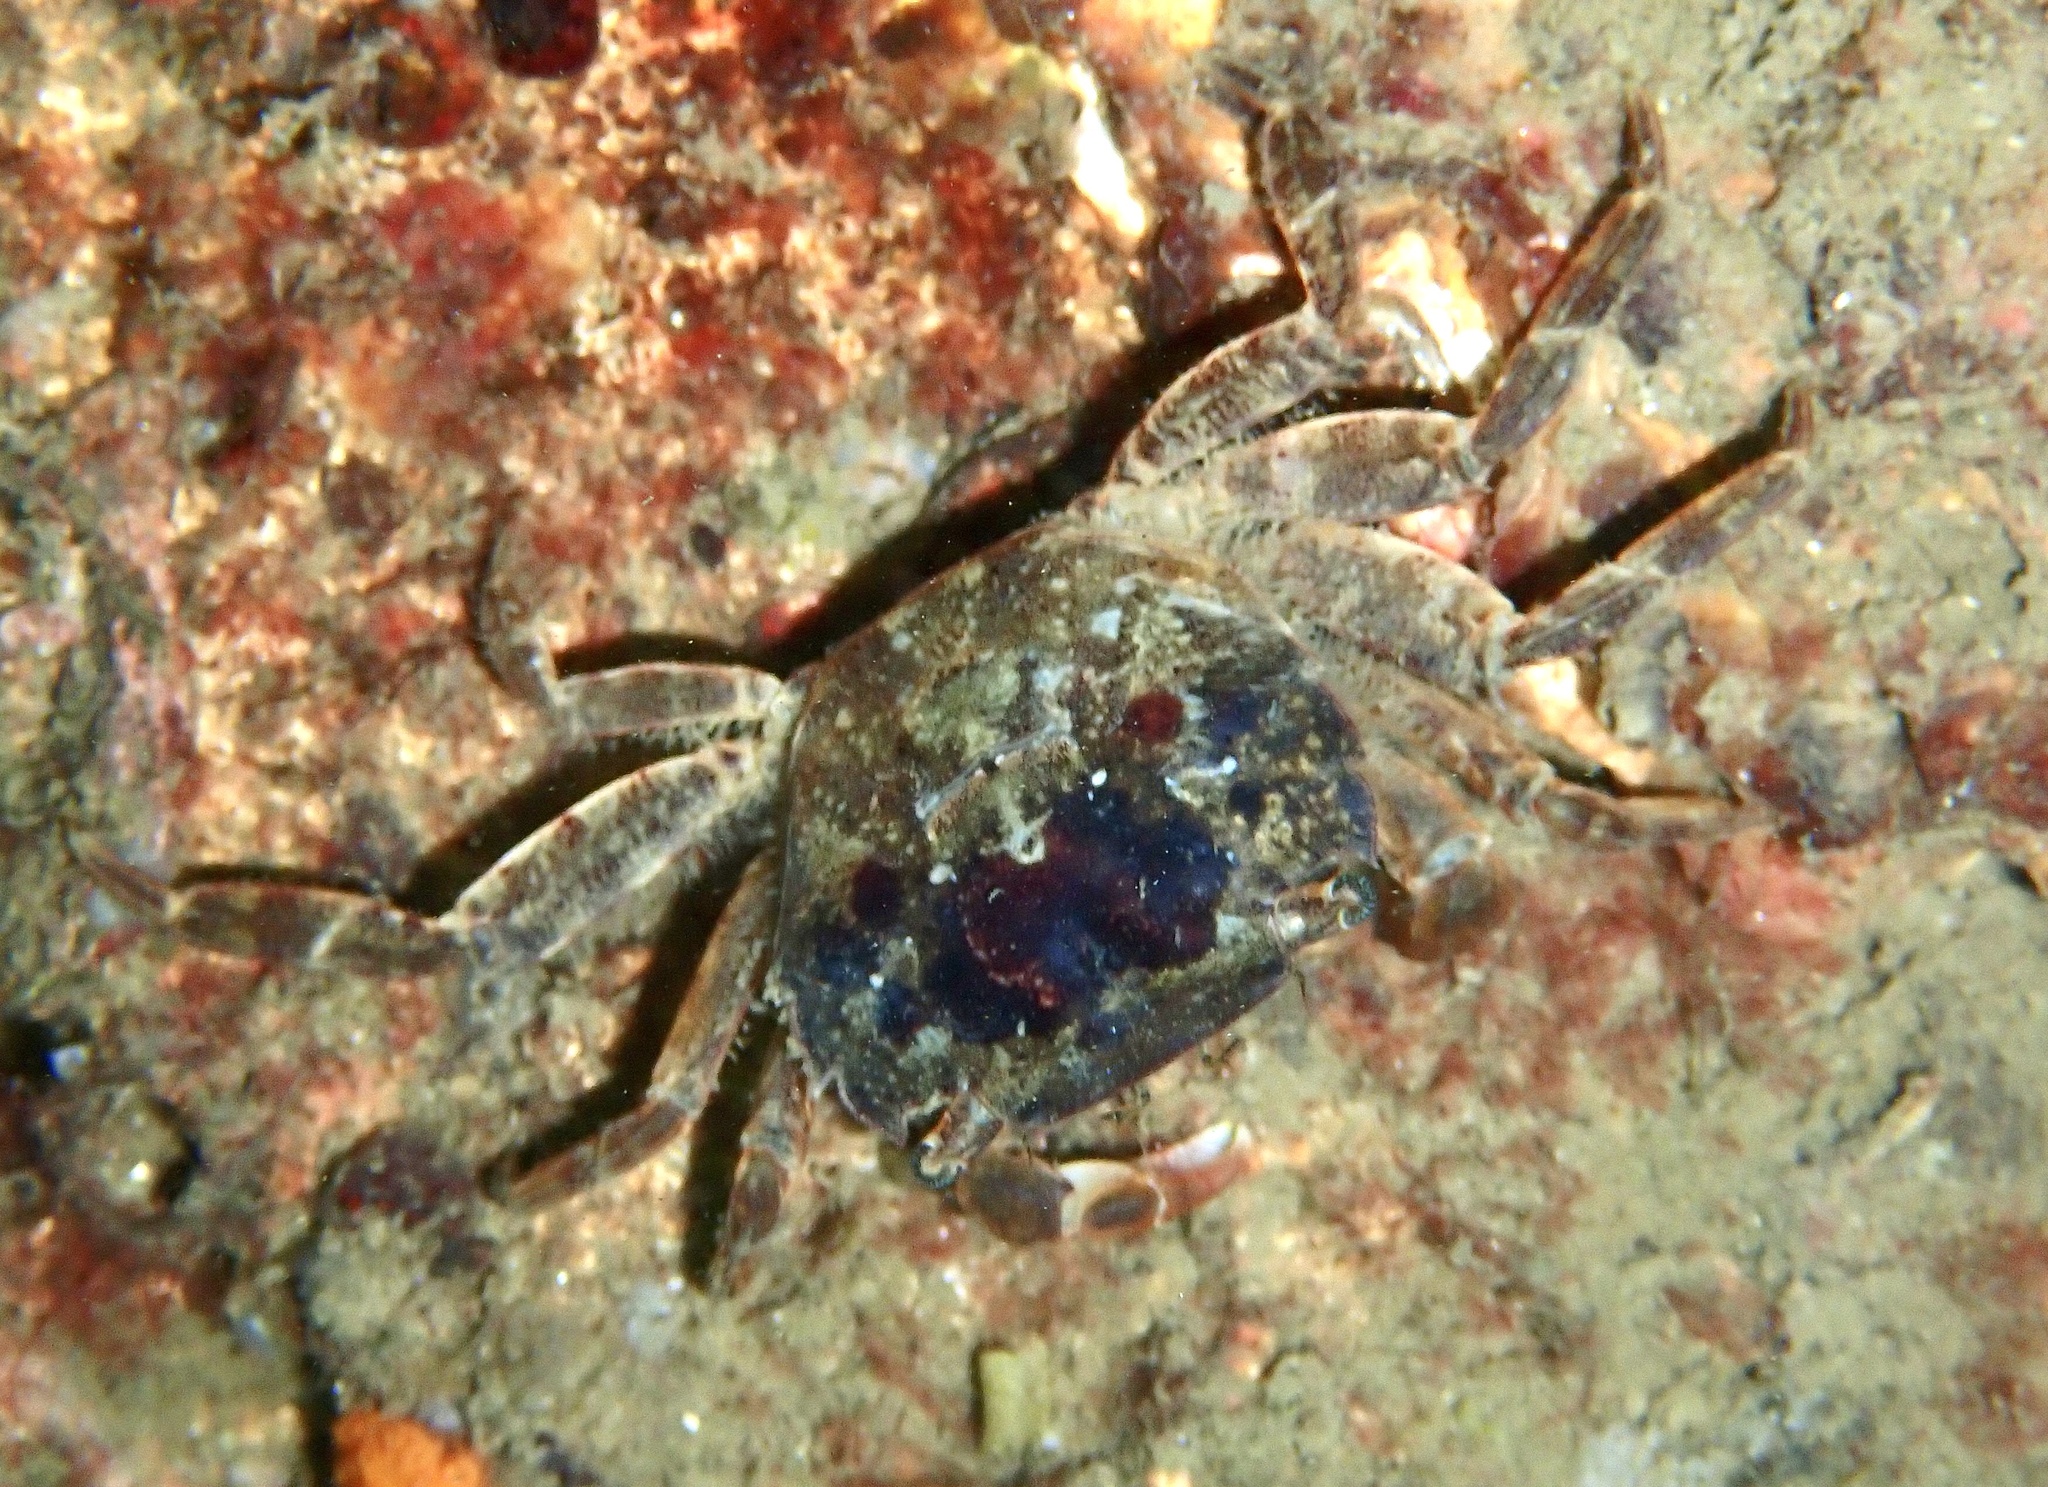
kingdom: Animalia
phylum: Arthropoda
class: Malacostraca
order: Decapoda
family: Varunidae
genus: Hemigrapsus
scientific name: Hemigrapsus takanoi
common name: Asian brush crab
